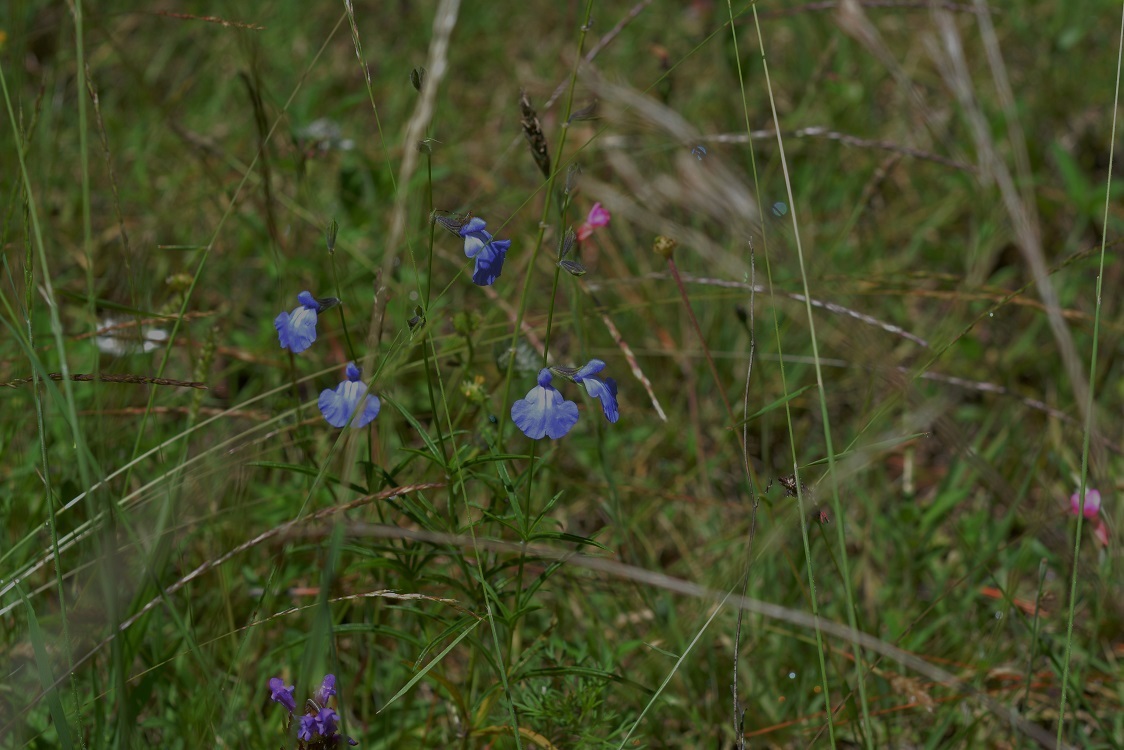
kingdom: Plantae
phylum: Tracheophyta
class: Magnoliopsida
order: Lamiales
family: Lamiaceae
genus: Salvia
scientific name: Salvia reptans
